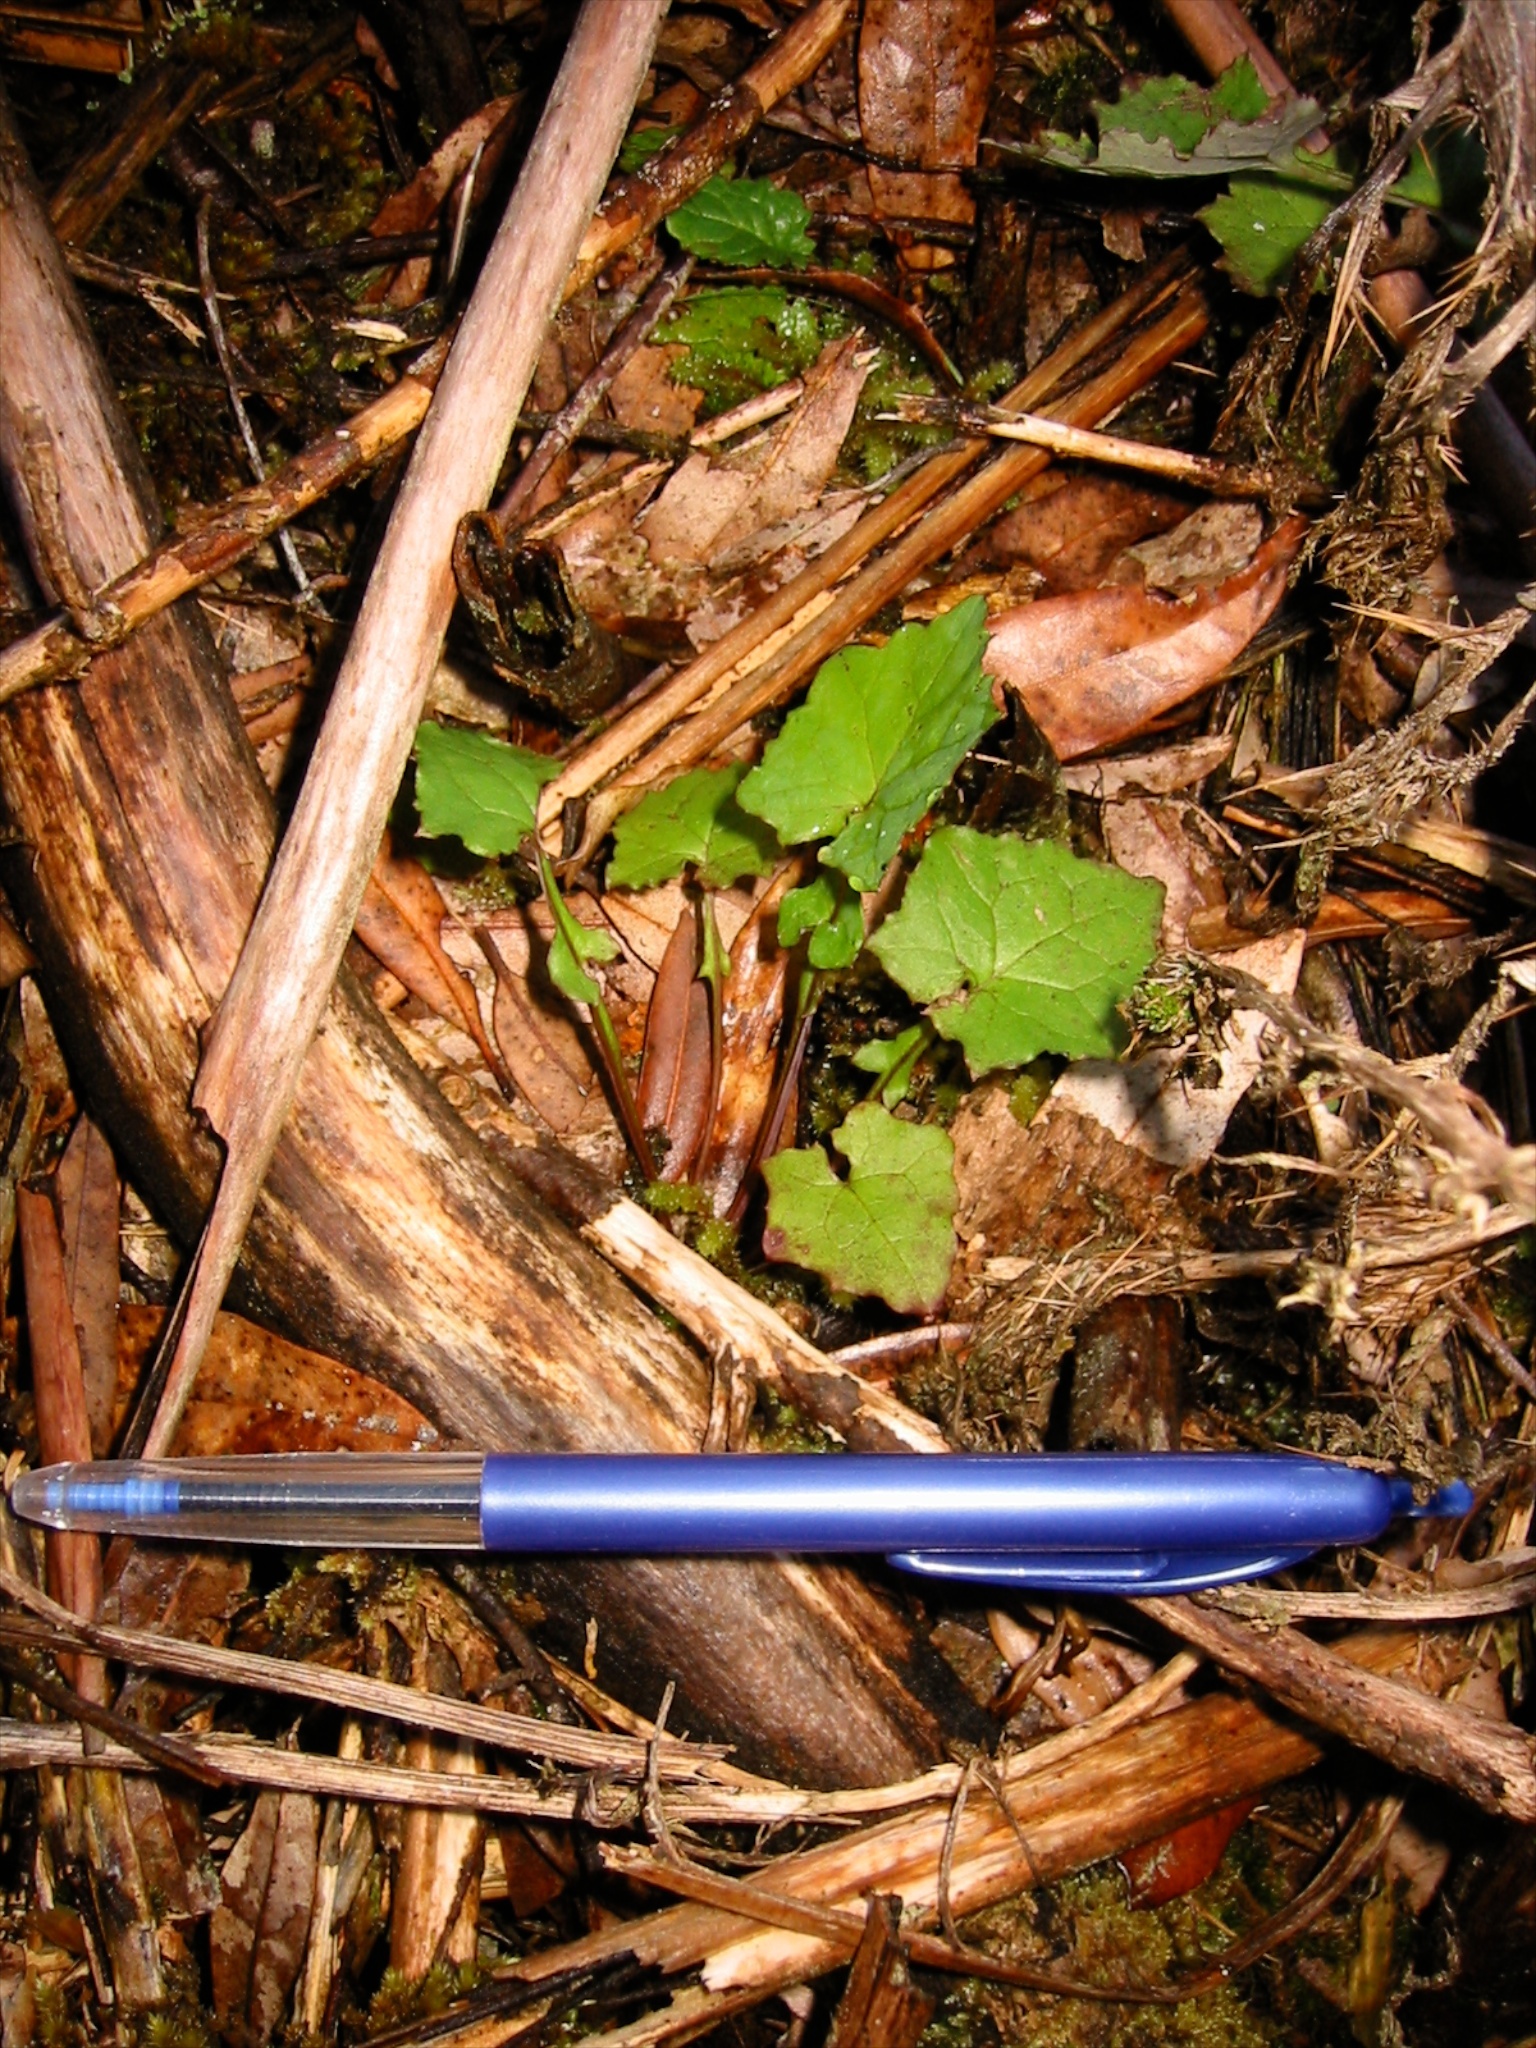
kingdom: Plantae
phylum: Tracheophyta
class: Magnoliopsida
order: Asterales
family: Asteraceae
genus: Mycelis
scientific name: Mycelis muralis
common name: Wall lettuce
